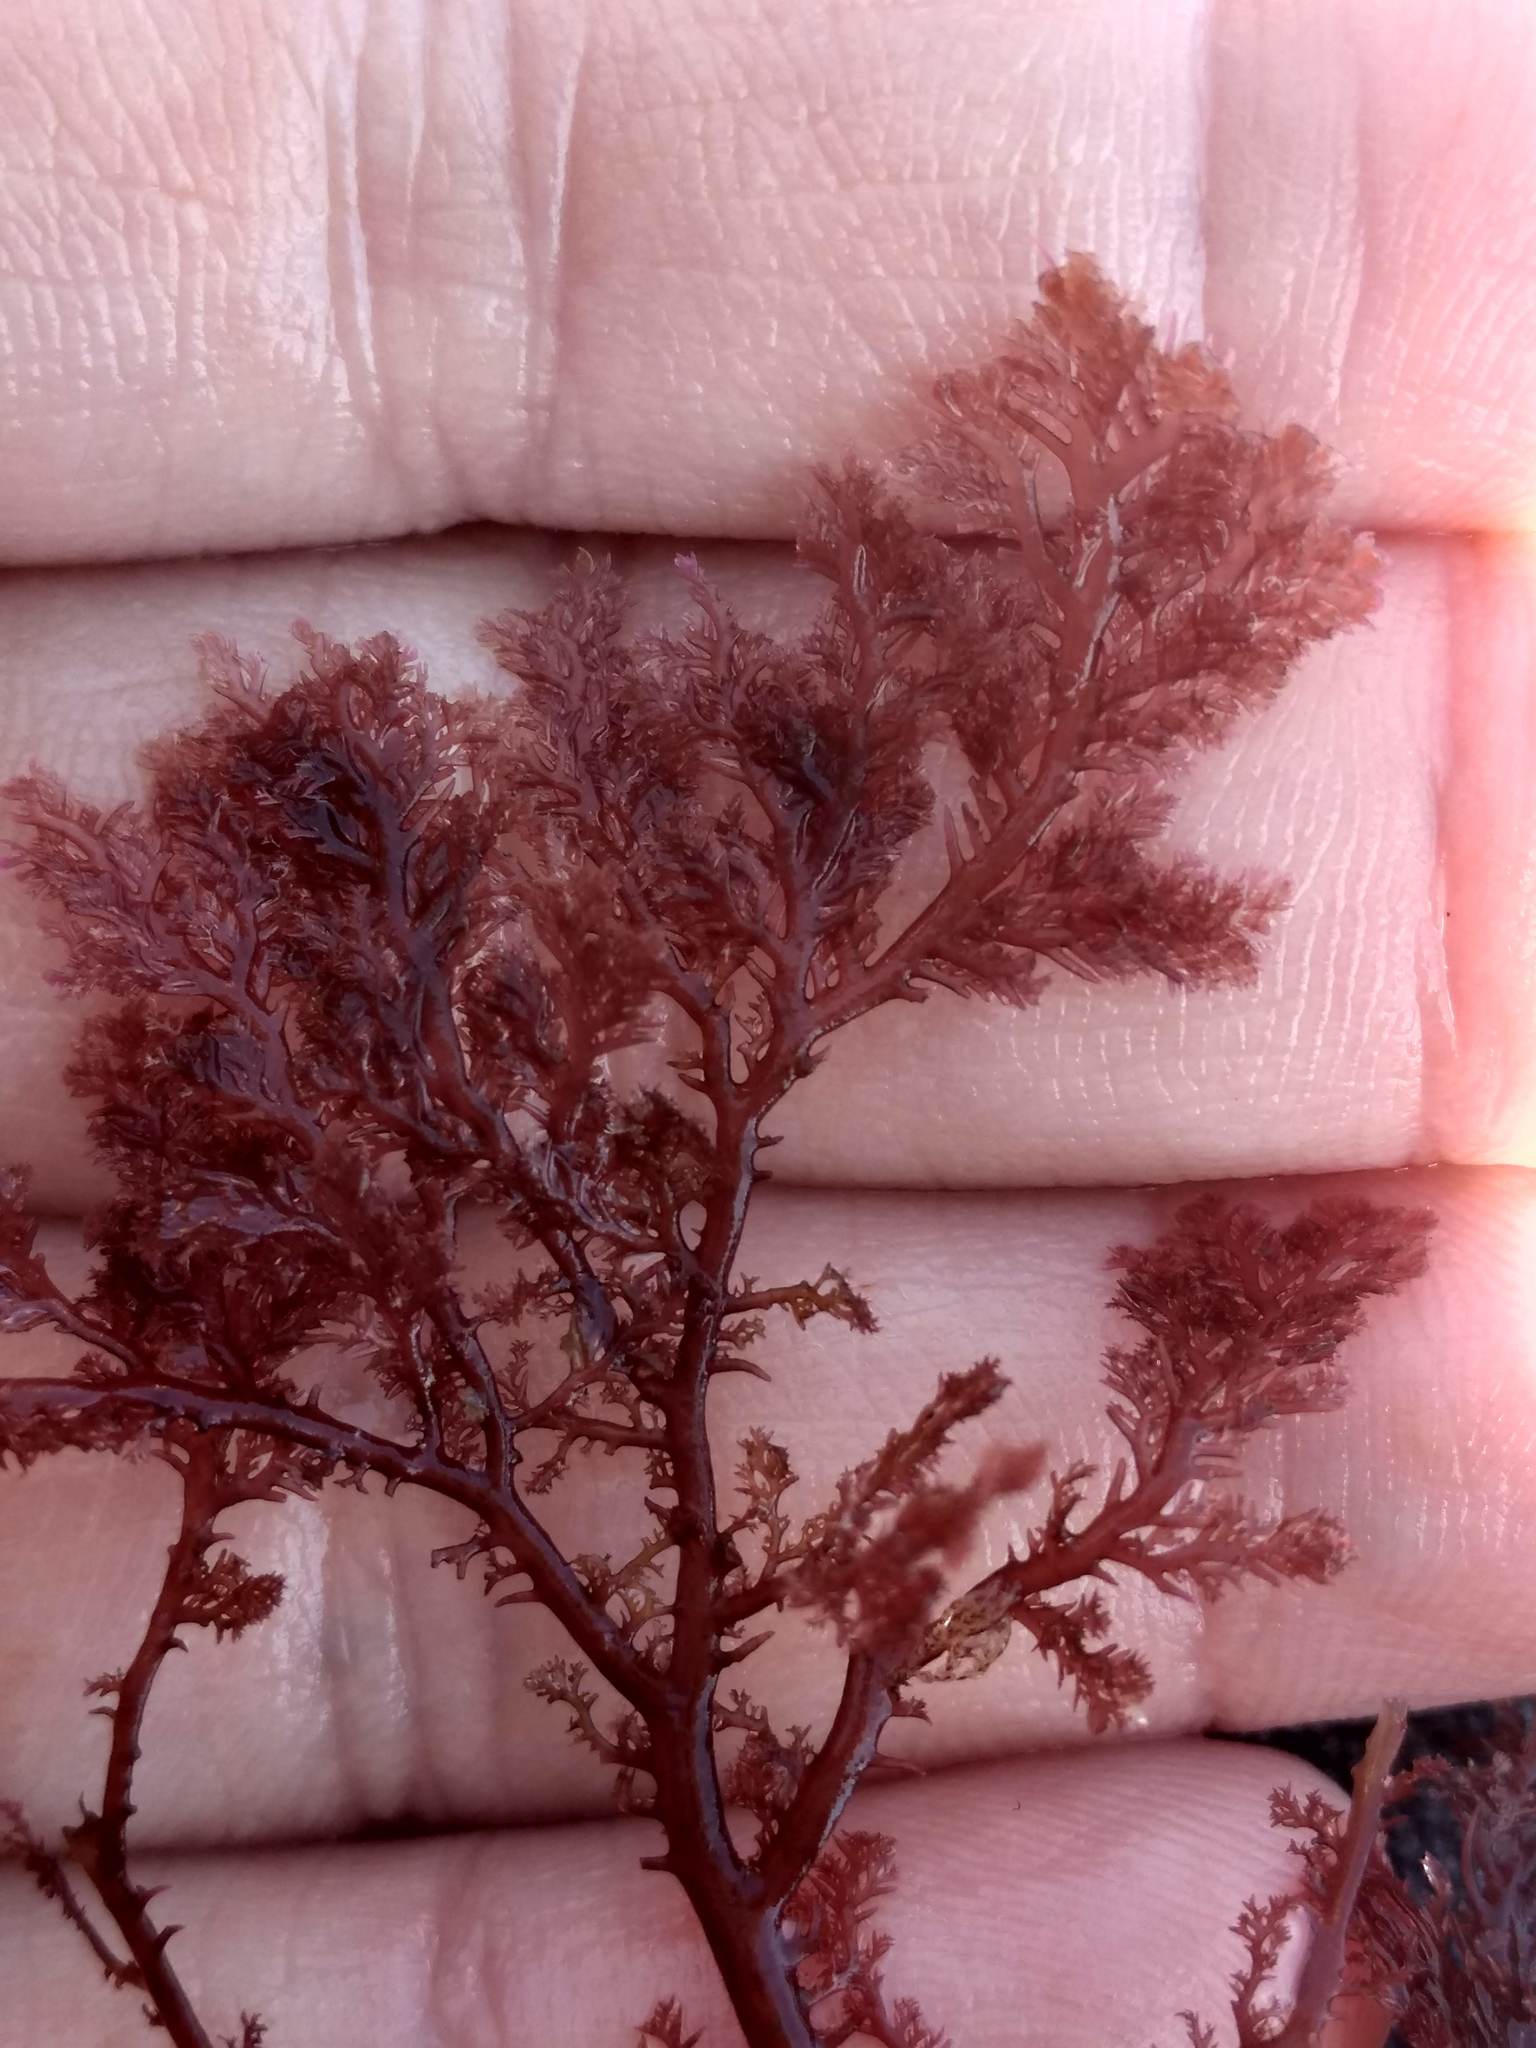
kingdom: Plantae
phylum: Rhodophyta
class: Florideophyceae
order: Plocamiales
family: Plocamiaceae
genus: Plocamium
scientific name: Plocamium cartilagineum
